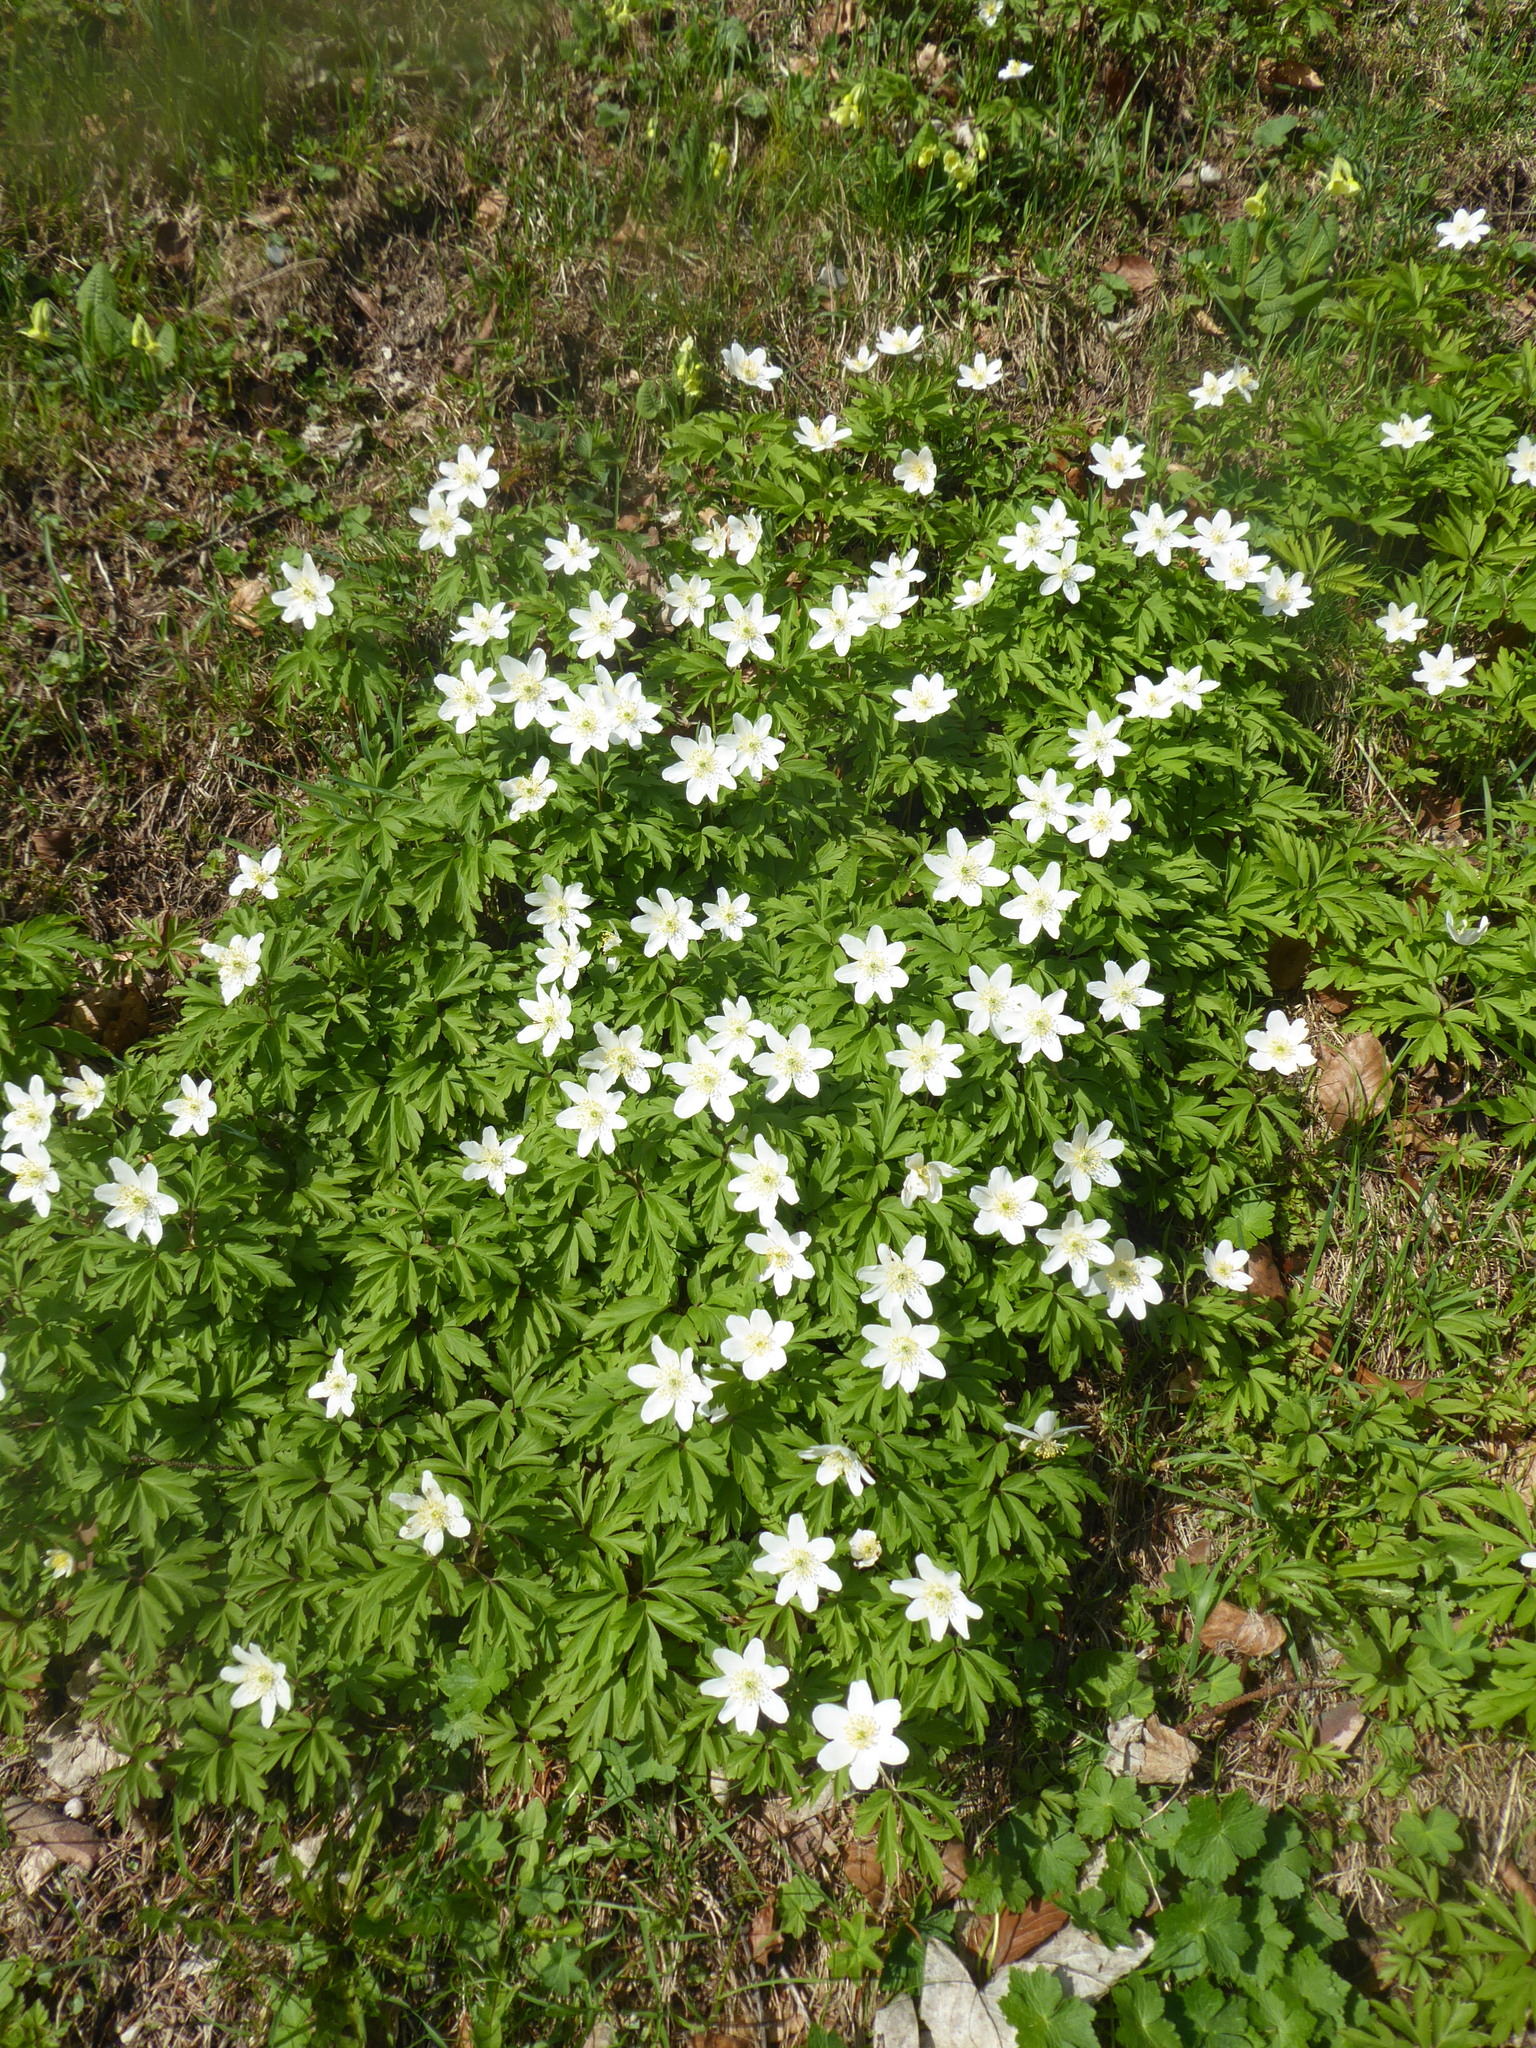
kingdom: Plantae
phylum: Tracheophyta
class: Magnoliopsida
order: Ranunculales
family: Ranunculaceae
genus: Anemone
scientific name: Anemone nemorosa
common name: Wood anemone
